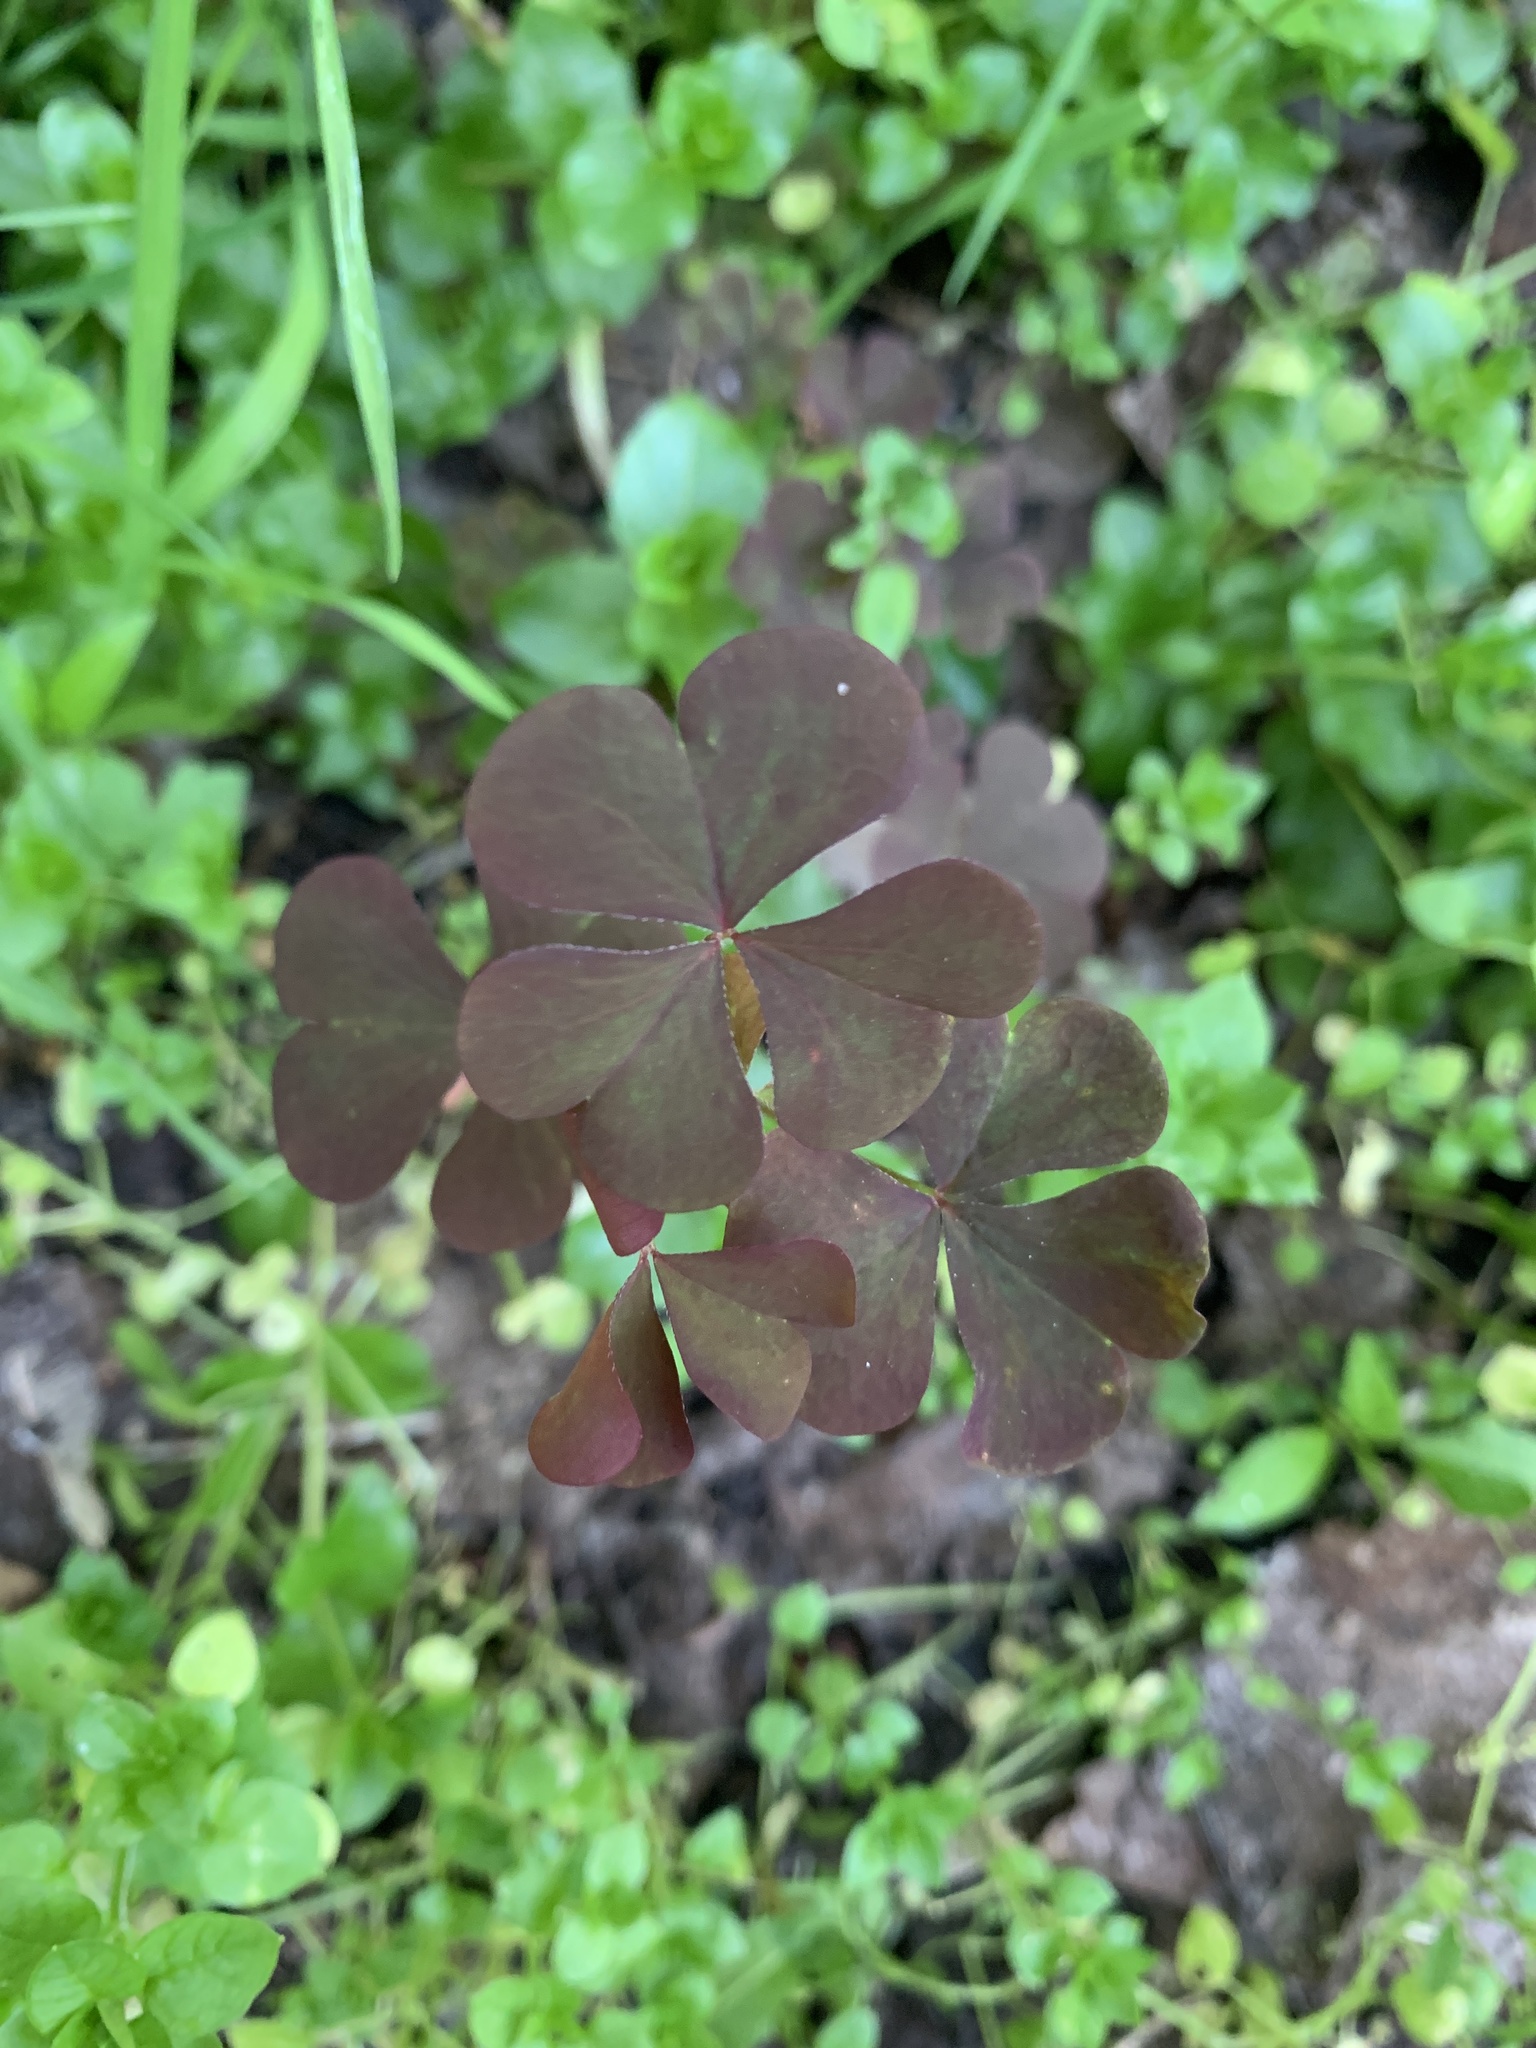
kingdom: Plantae
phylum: Tracheophyta
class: Magnoliopsida
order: Oxalidales
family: Oxalidaceae
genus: Oxalis
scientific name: Oxalis stricta
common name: Upright yellow-sorrel
